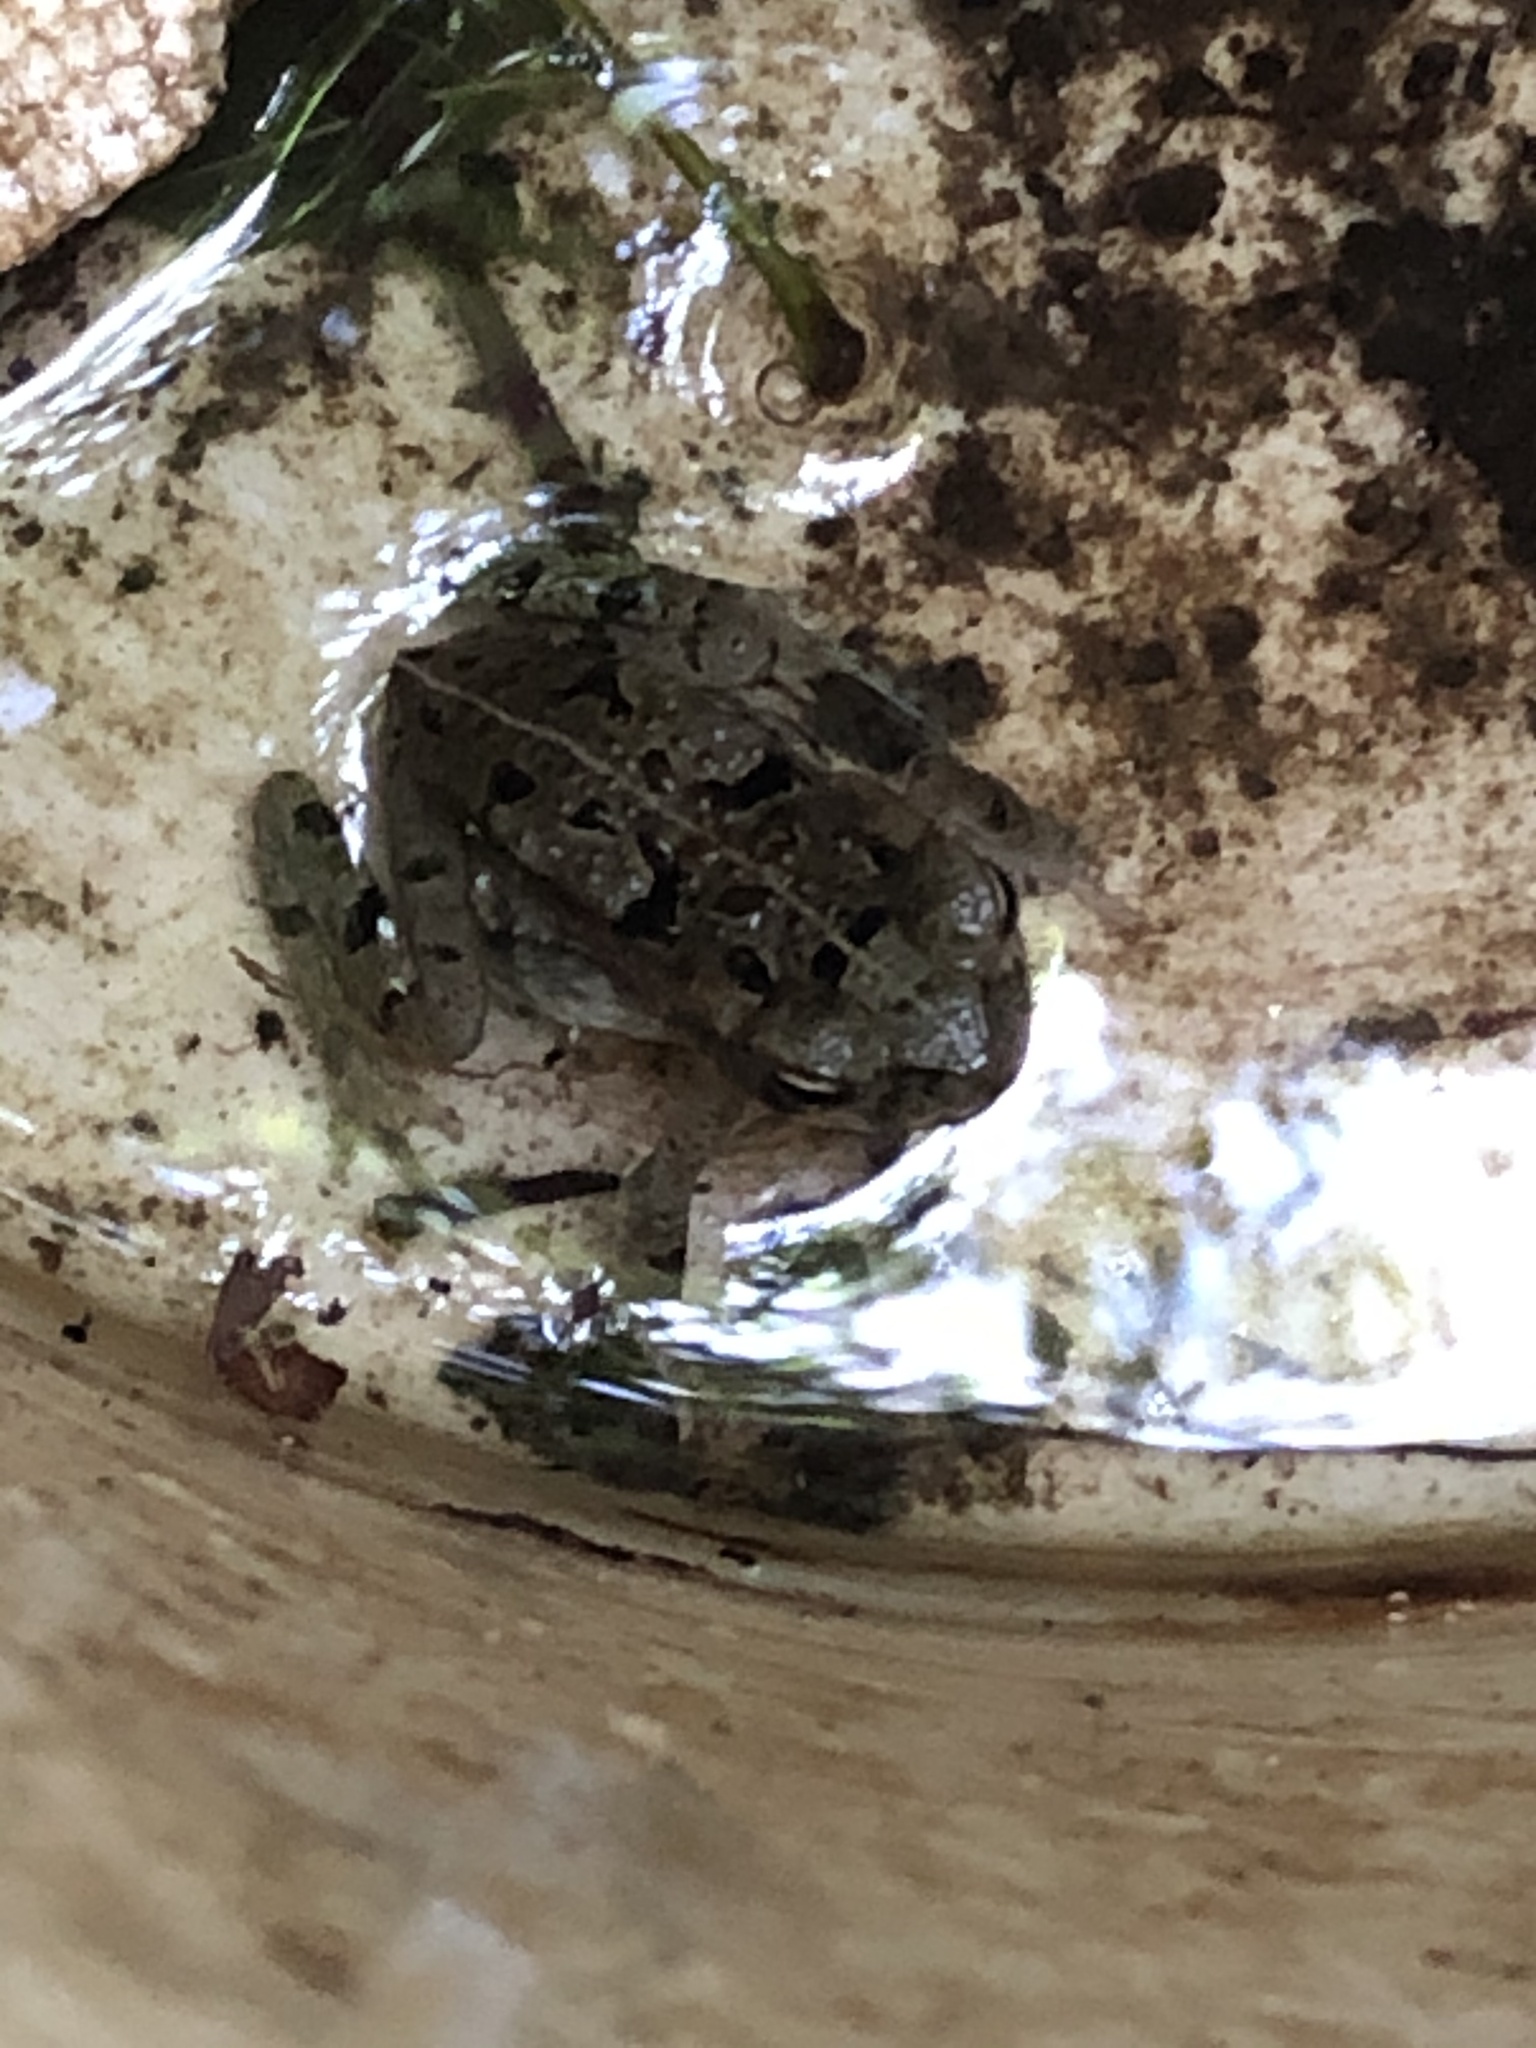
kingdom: Animalia
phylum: Chordata
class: Amphibia
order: Anura
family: Bufonidae
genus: Rhinella
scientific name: Rhinella marina
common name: Cane toad
